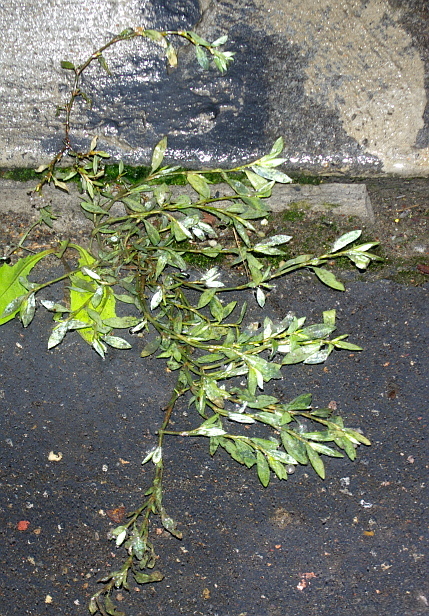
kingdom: Plantae
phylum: Tracheophyta
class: Magnoliopsida
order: Caryophyllales
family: Polygonaceae
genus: Polygonum
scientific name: Polygonum
